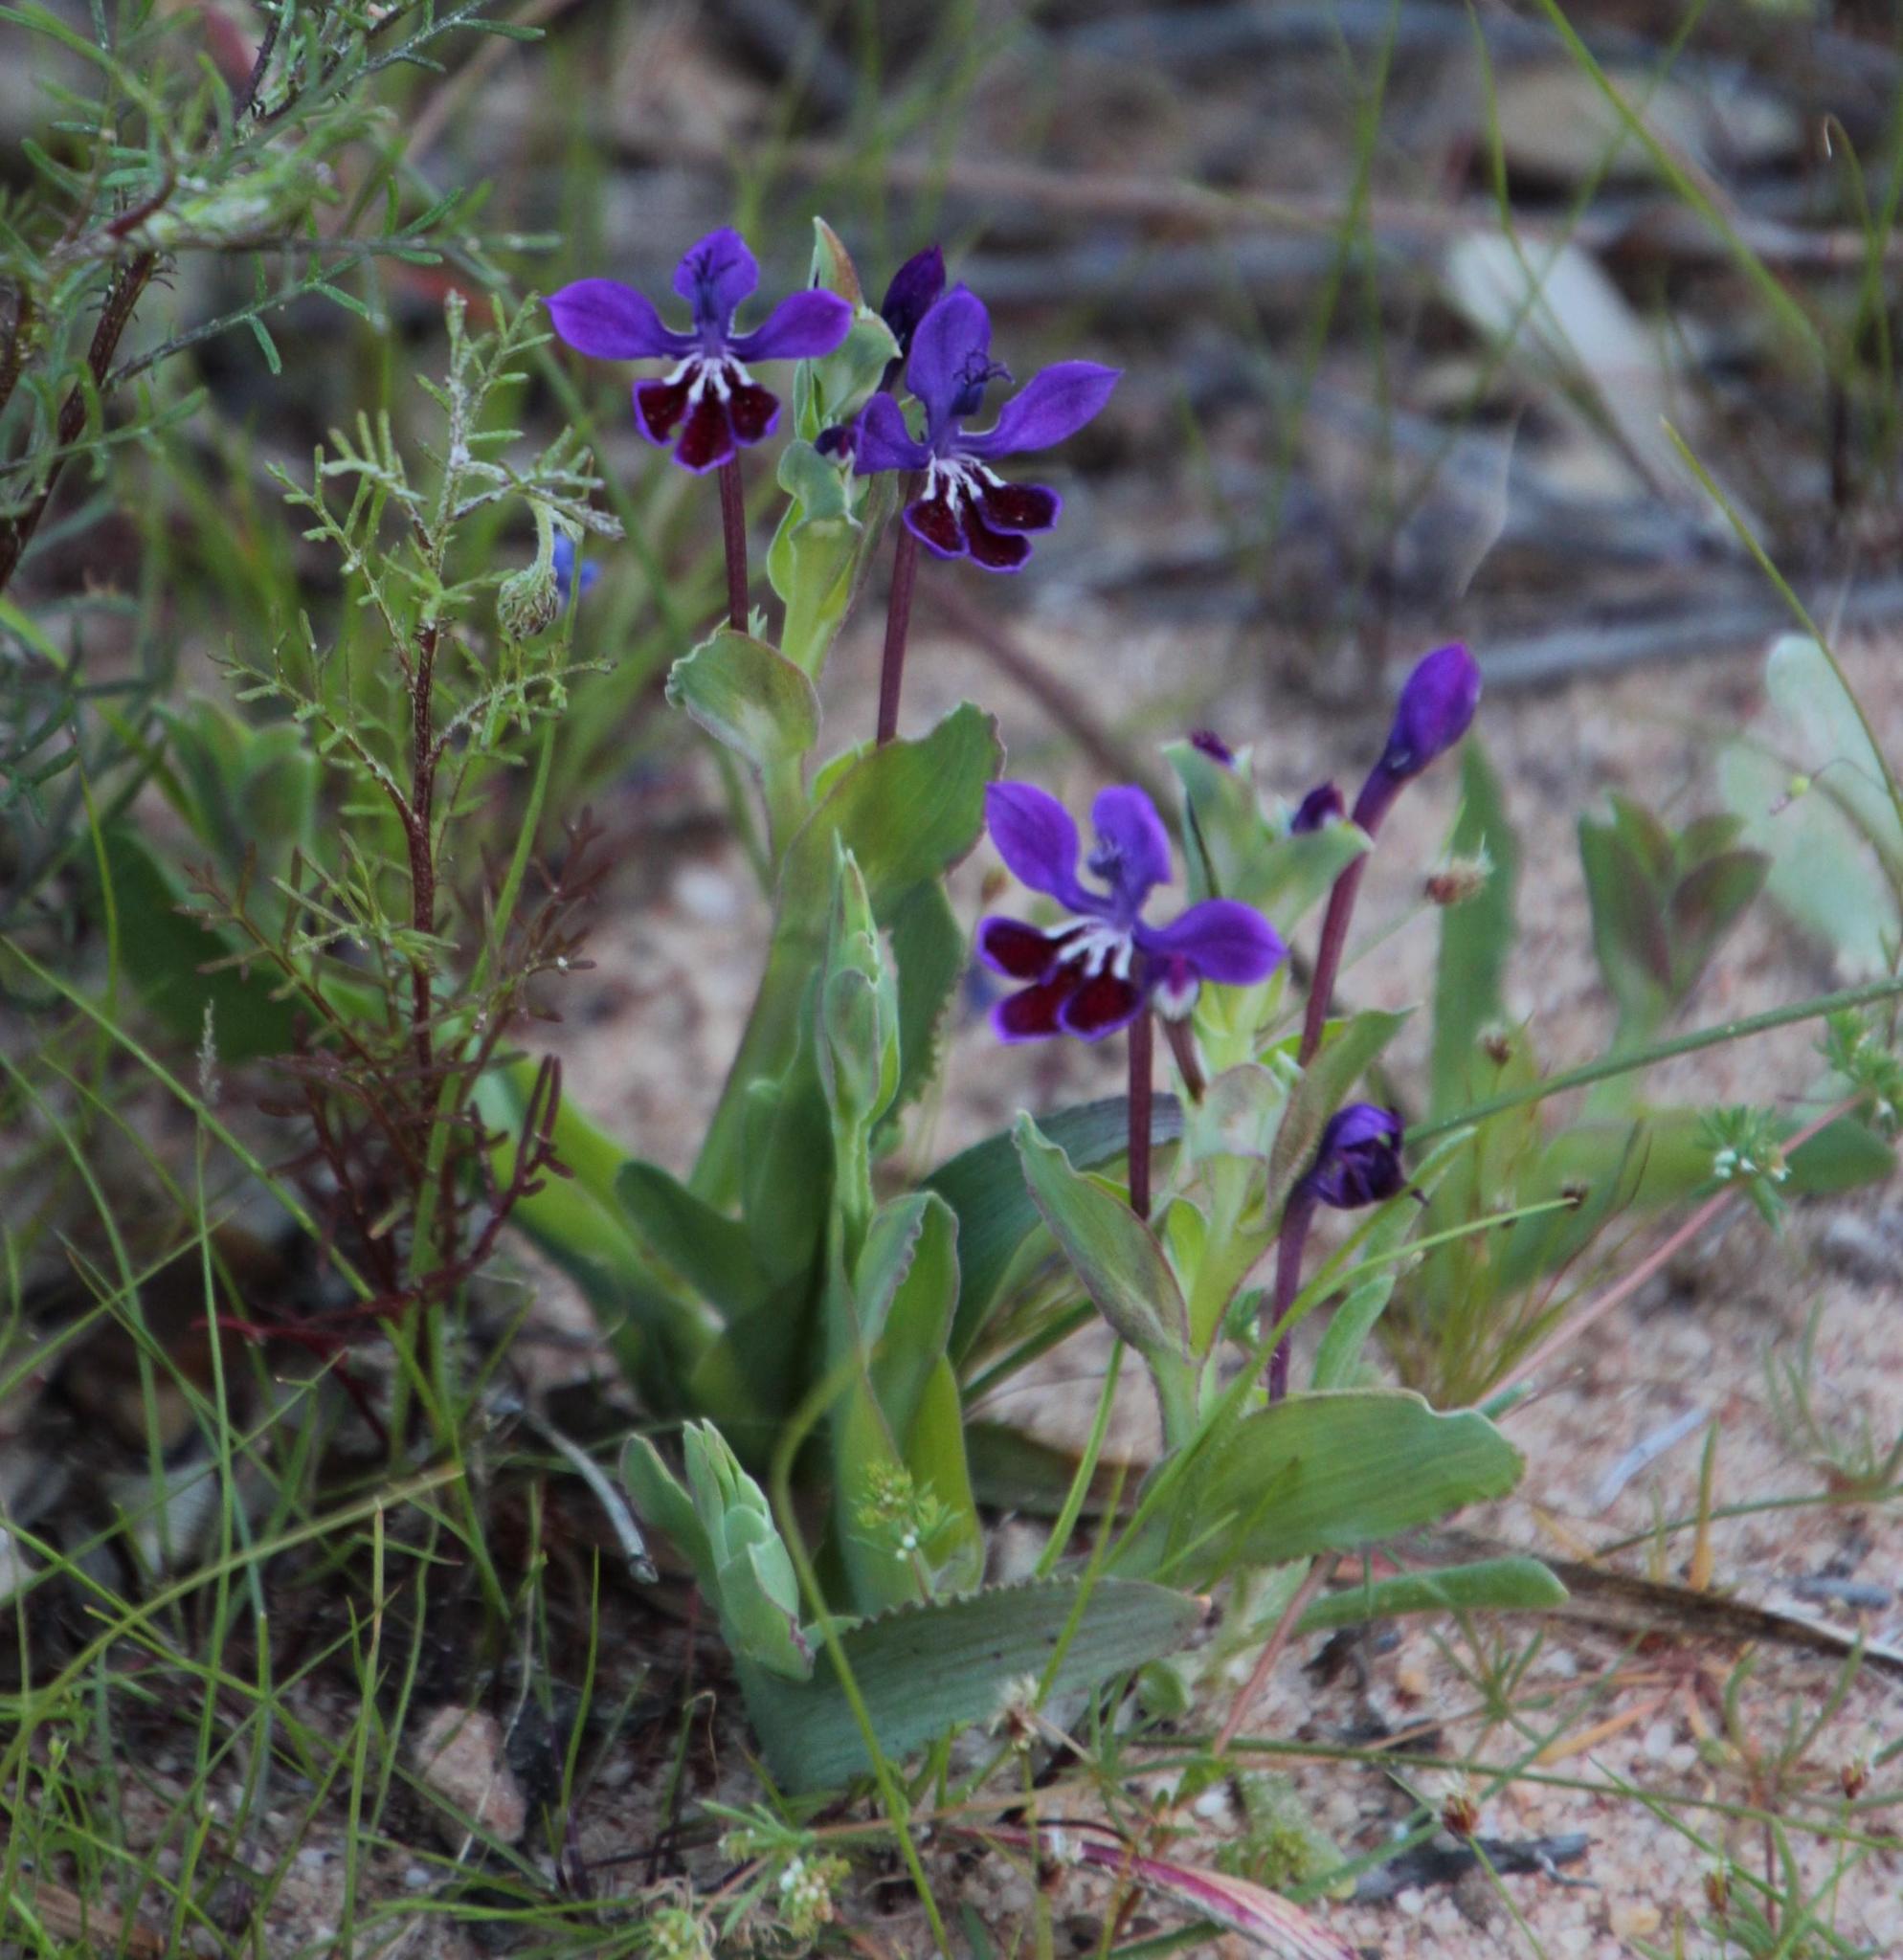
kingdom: Plantae
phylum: Tracheophyta
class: Liliopsida
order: Asparagales
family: Iridaceae
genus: Lapeirousia
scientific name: Lapeirousia jacquinii
